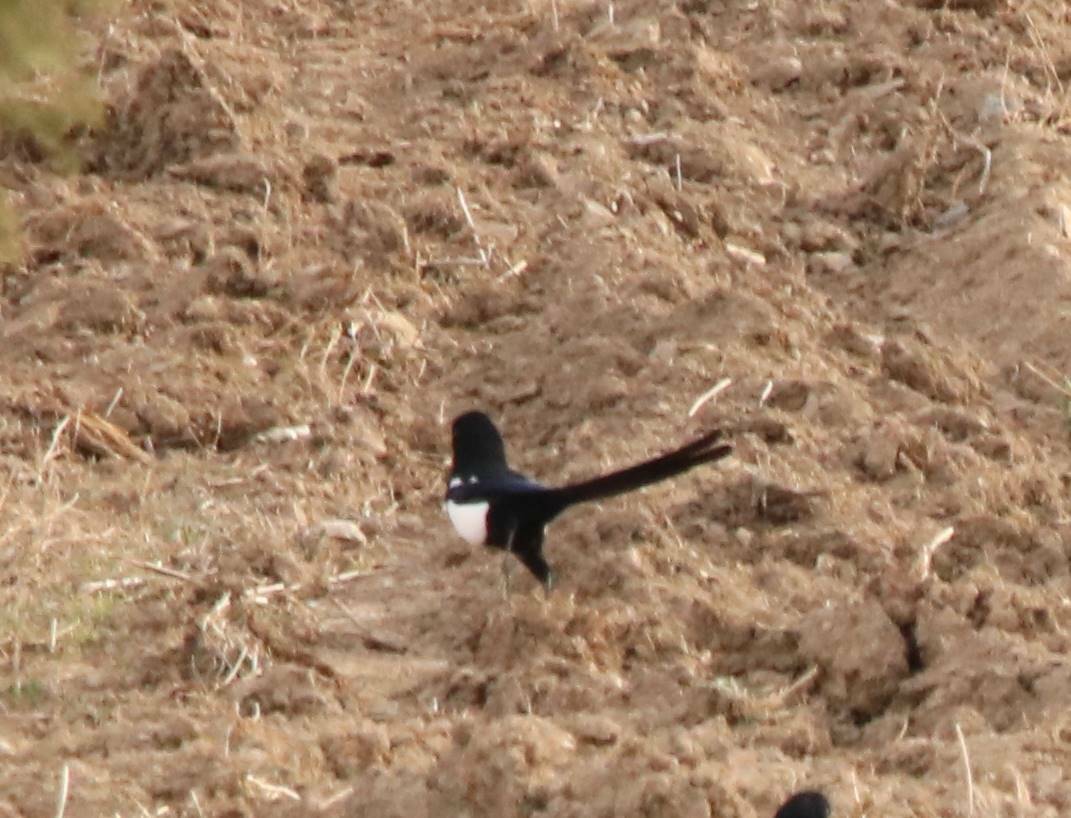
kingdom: Animalia
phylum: Chordata
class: Aves
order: Passeriformes
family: Corvidae
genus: Pica
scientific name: Pica mauritanica
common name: Maghreb magpie
